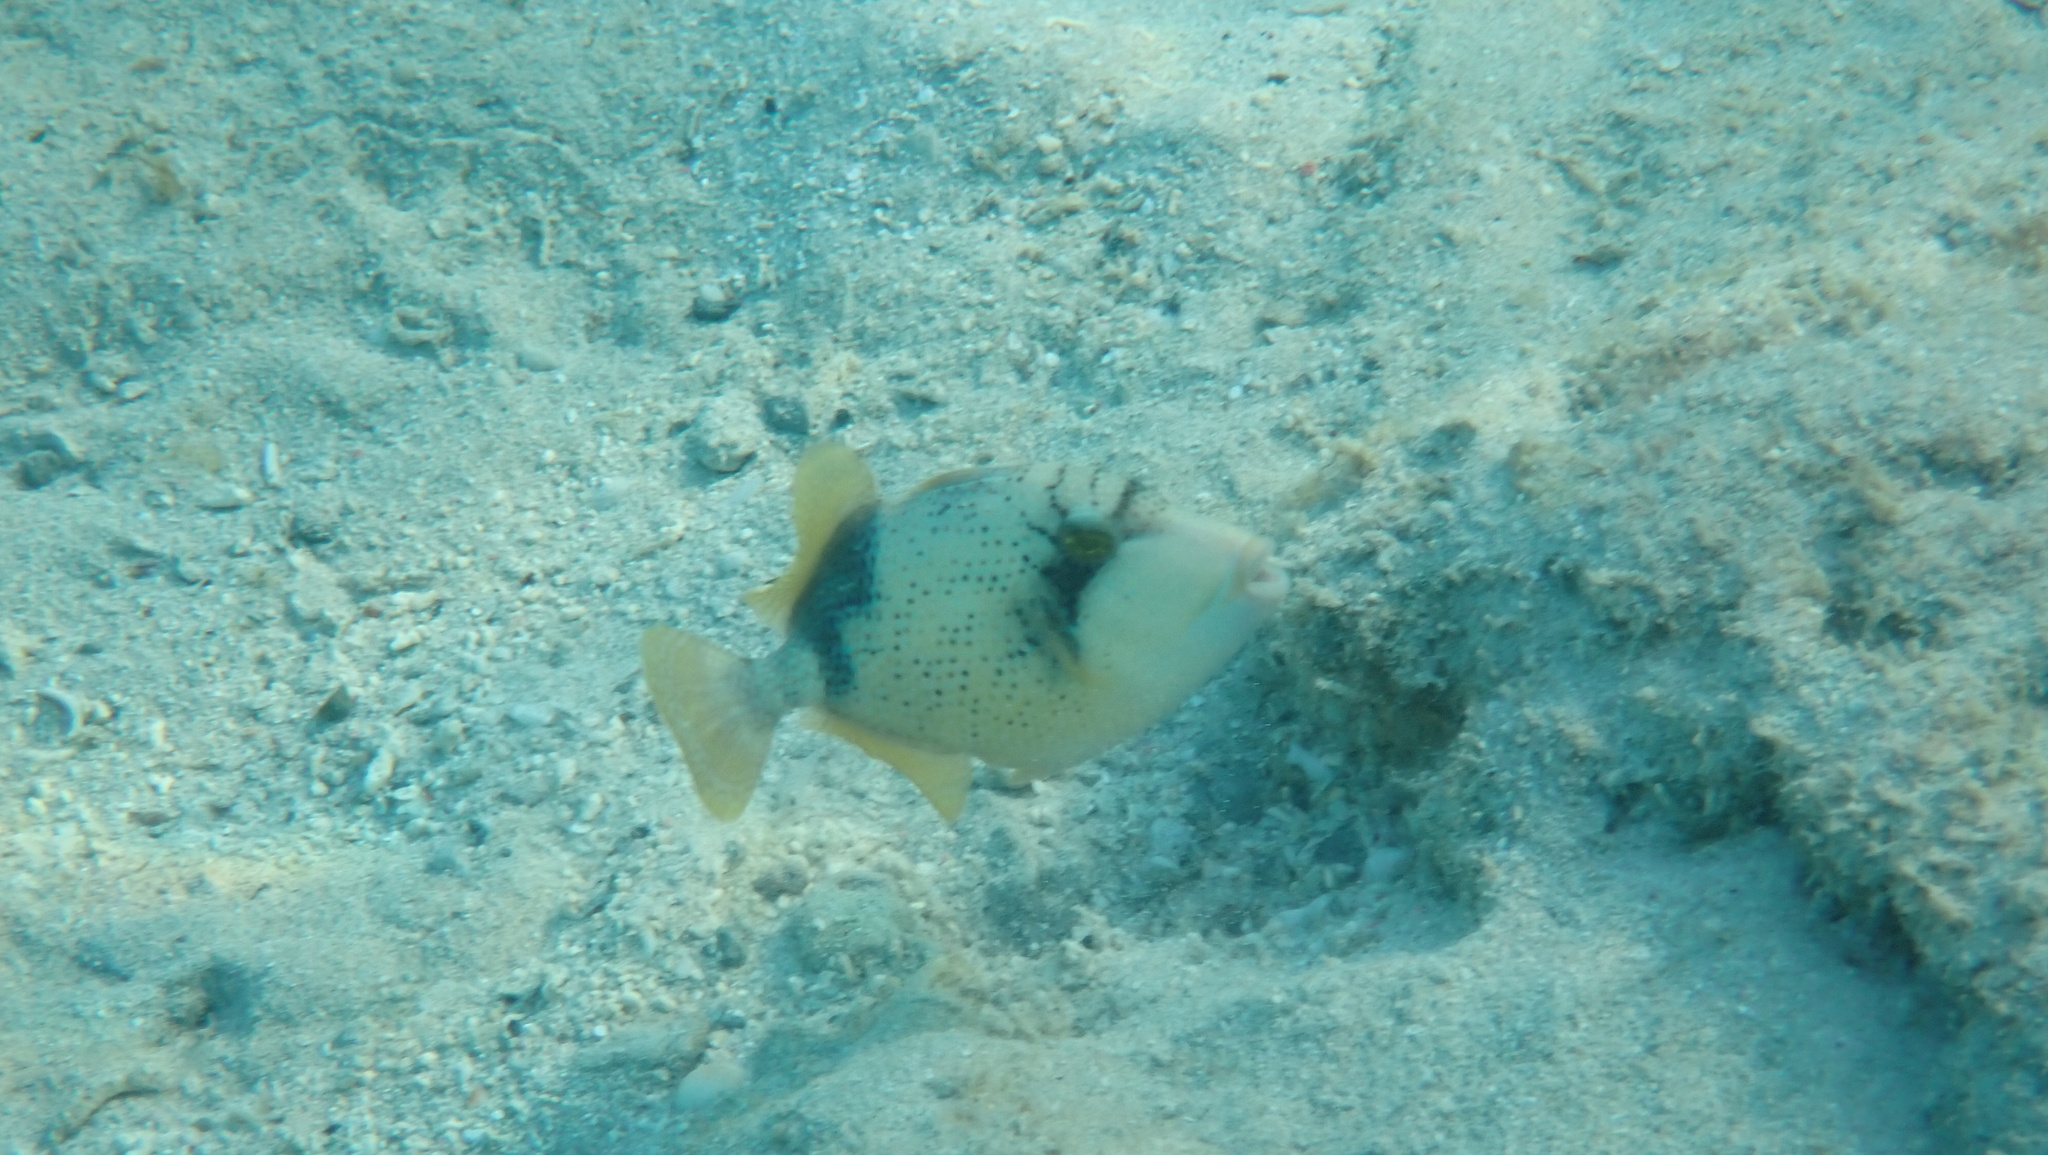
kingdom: Animalia
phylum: Chordata
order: Tetraodontiformes
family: Balistidae
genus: Balistoides
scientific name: Balistoides viridescens
